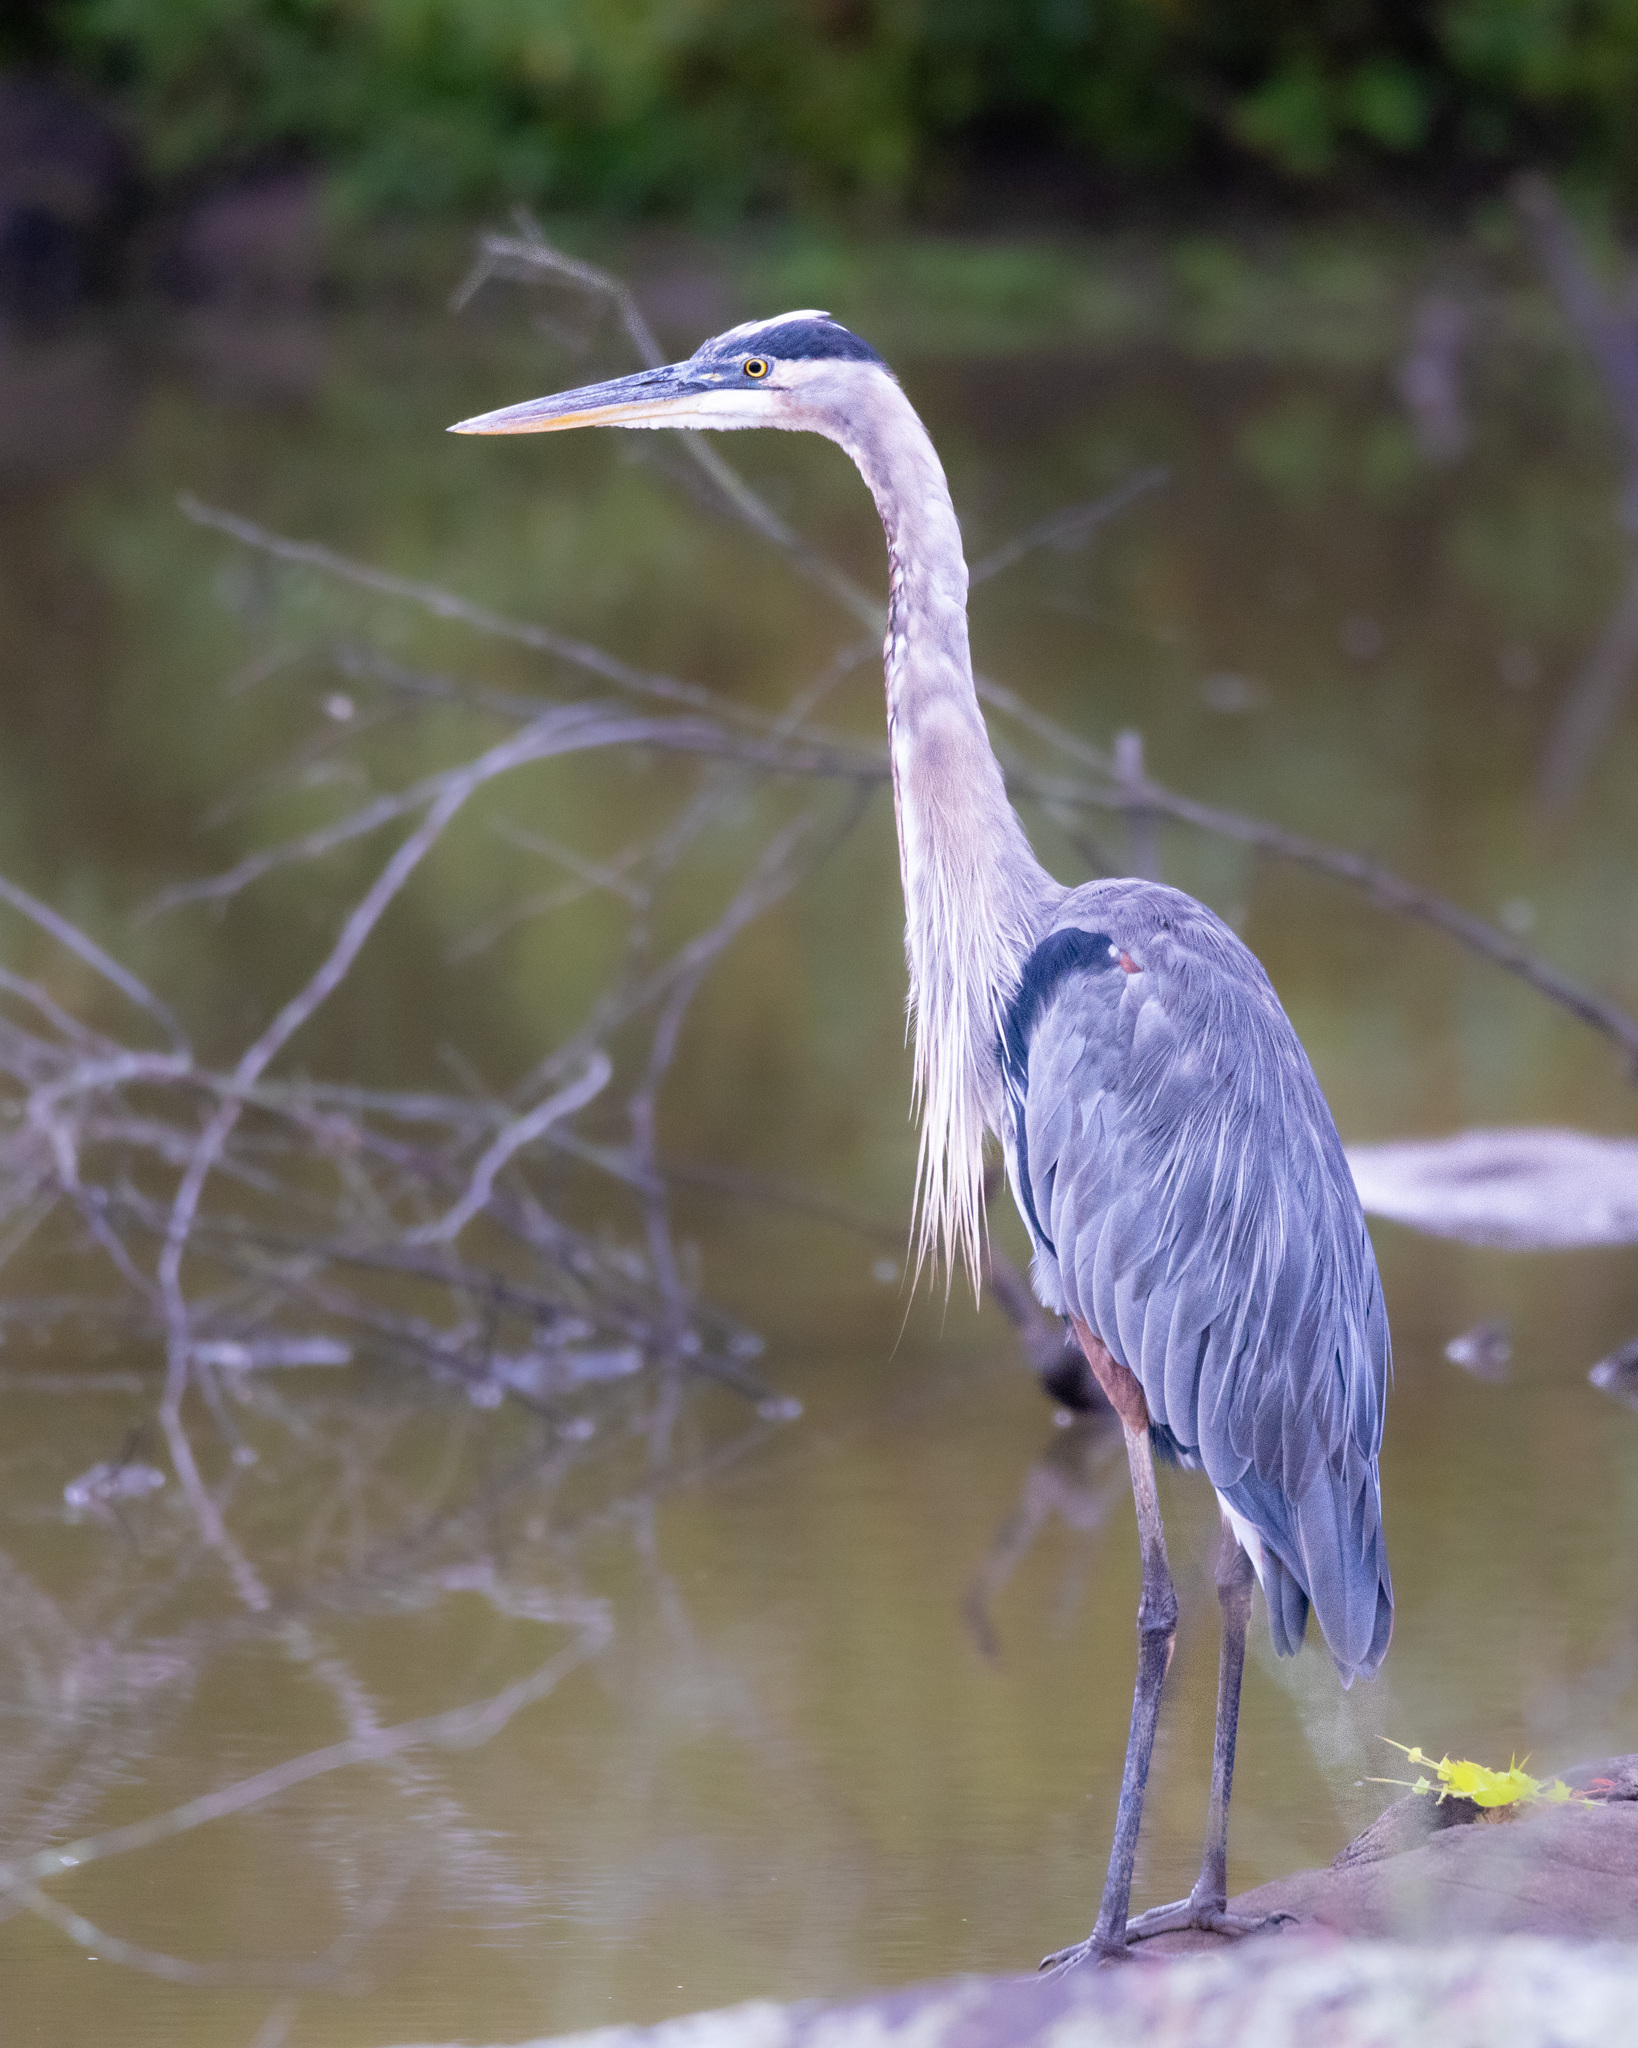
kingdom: Animalia
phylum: Chordata
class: Aves
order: Pelecaniformes
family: Ardeidae
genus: Ardea
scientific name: Ardea herodias
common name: Great blue heron
